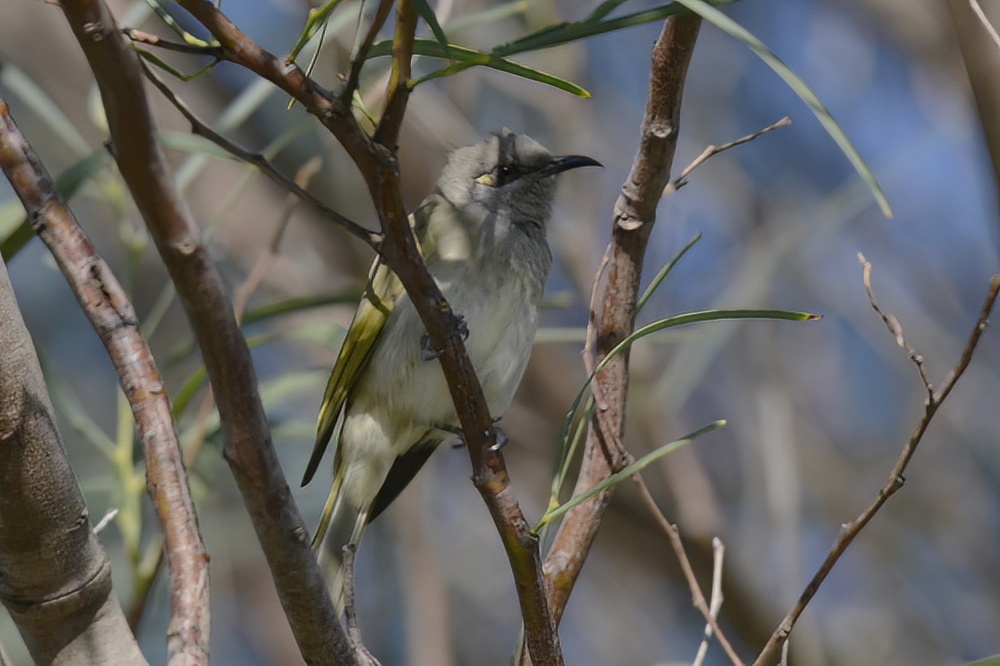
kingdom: Animalia
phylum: Chordata
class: Aves
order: Passeriformes
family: Meliphagidae
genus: Lichmera
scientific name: Lichmera indistincta
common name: Brown honeyeater
